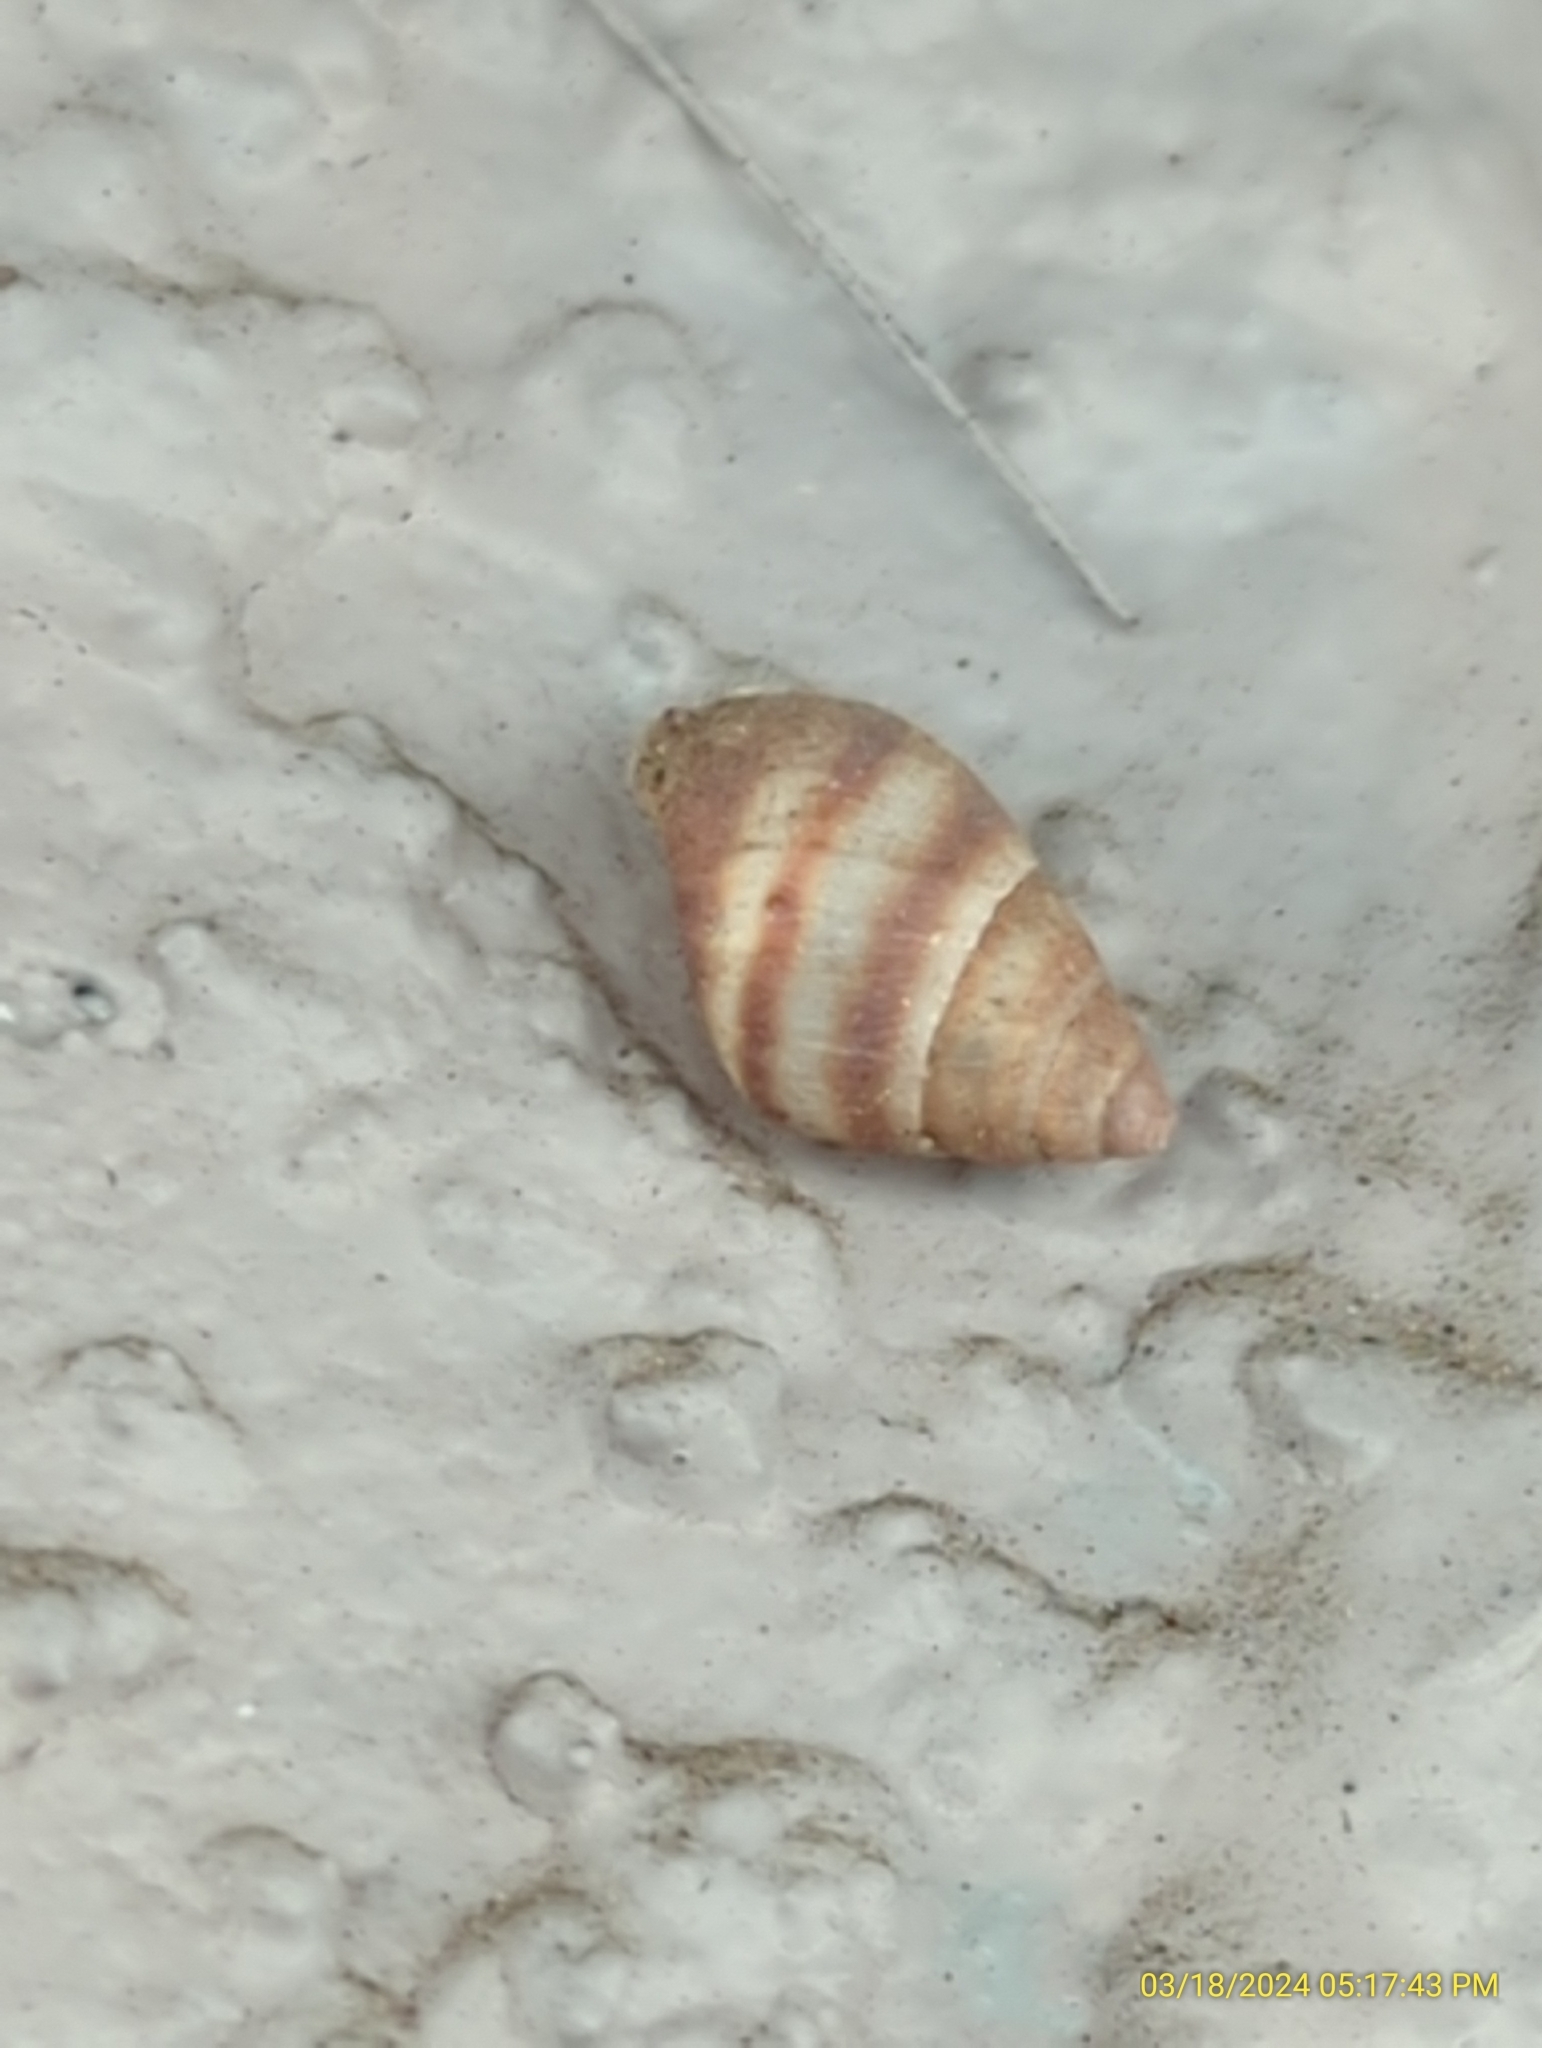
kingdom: Animalia
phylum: Mollusca
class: Gastropoda
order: Stylommatophora
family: Bulimulidae
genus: Bulimulus
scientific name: Bulimulus guadalupensis
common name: West indian bulimulus
